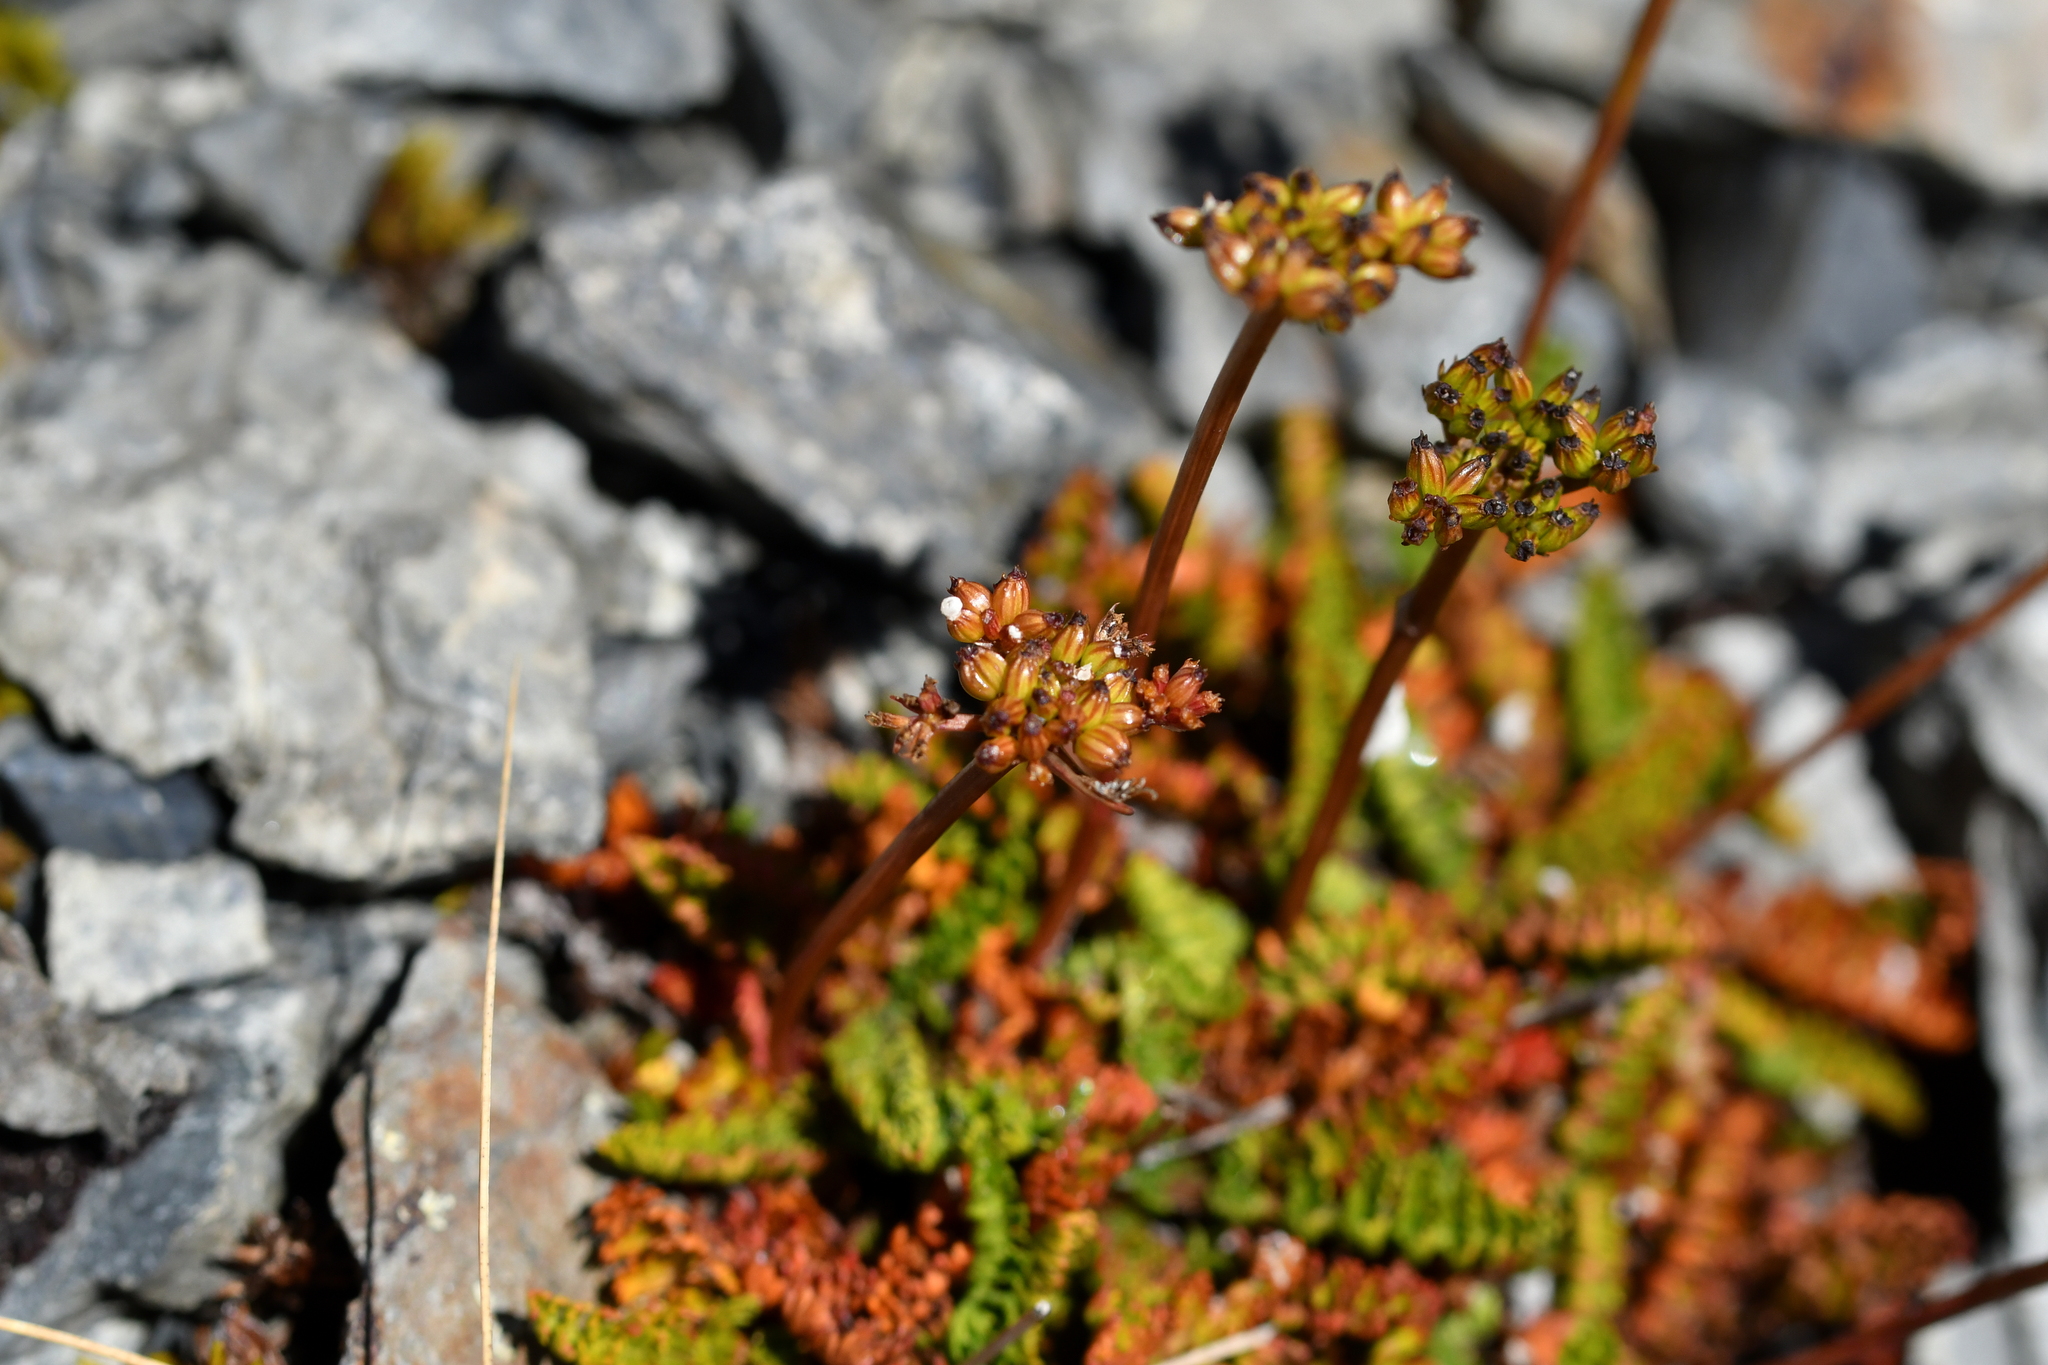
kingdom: Plantae
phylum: Tracheophyta
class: Magnoliopsida
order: Apiales
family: Apiaceae
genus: Anisotome
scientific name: Anisotome flexuosa
